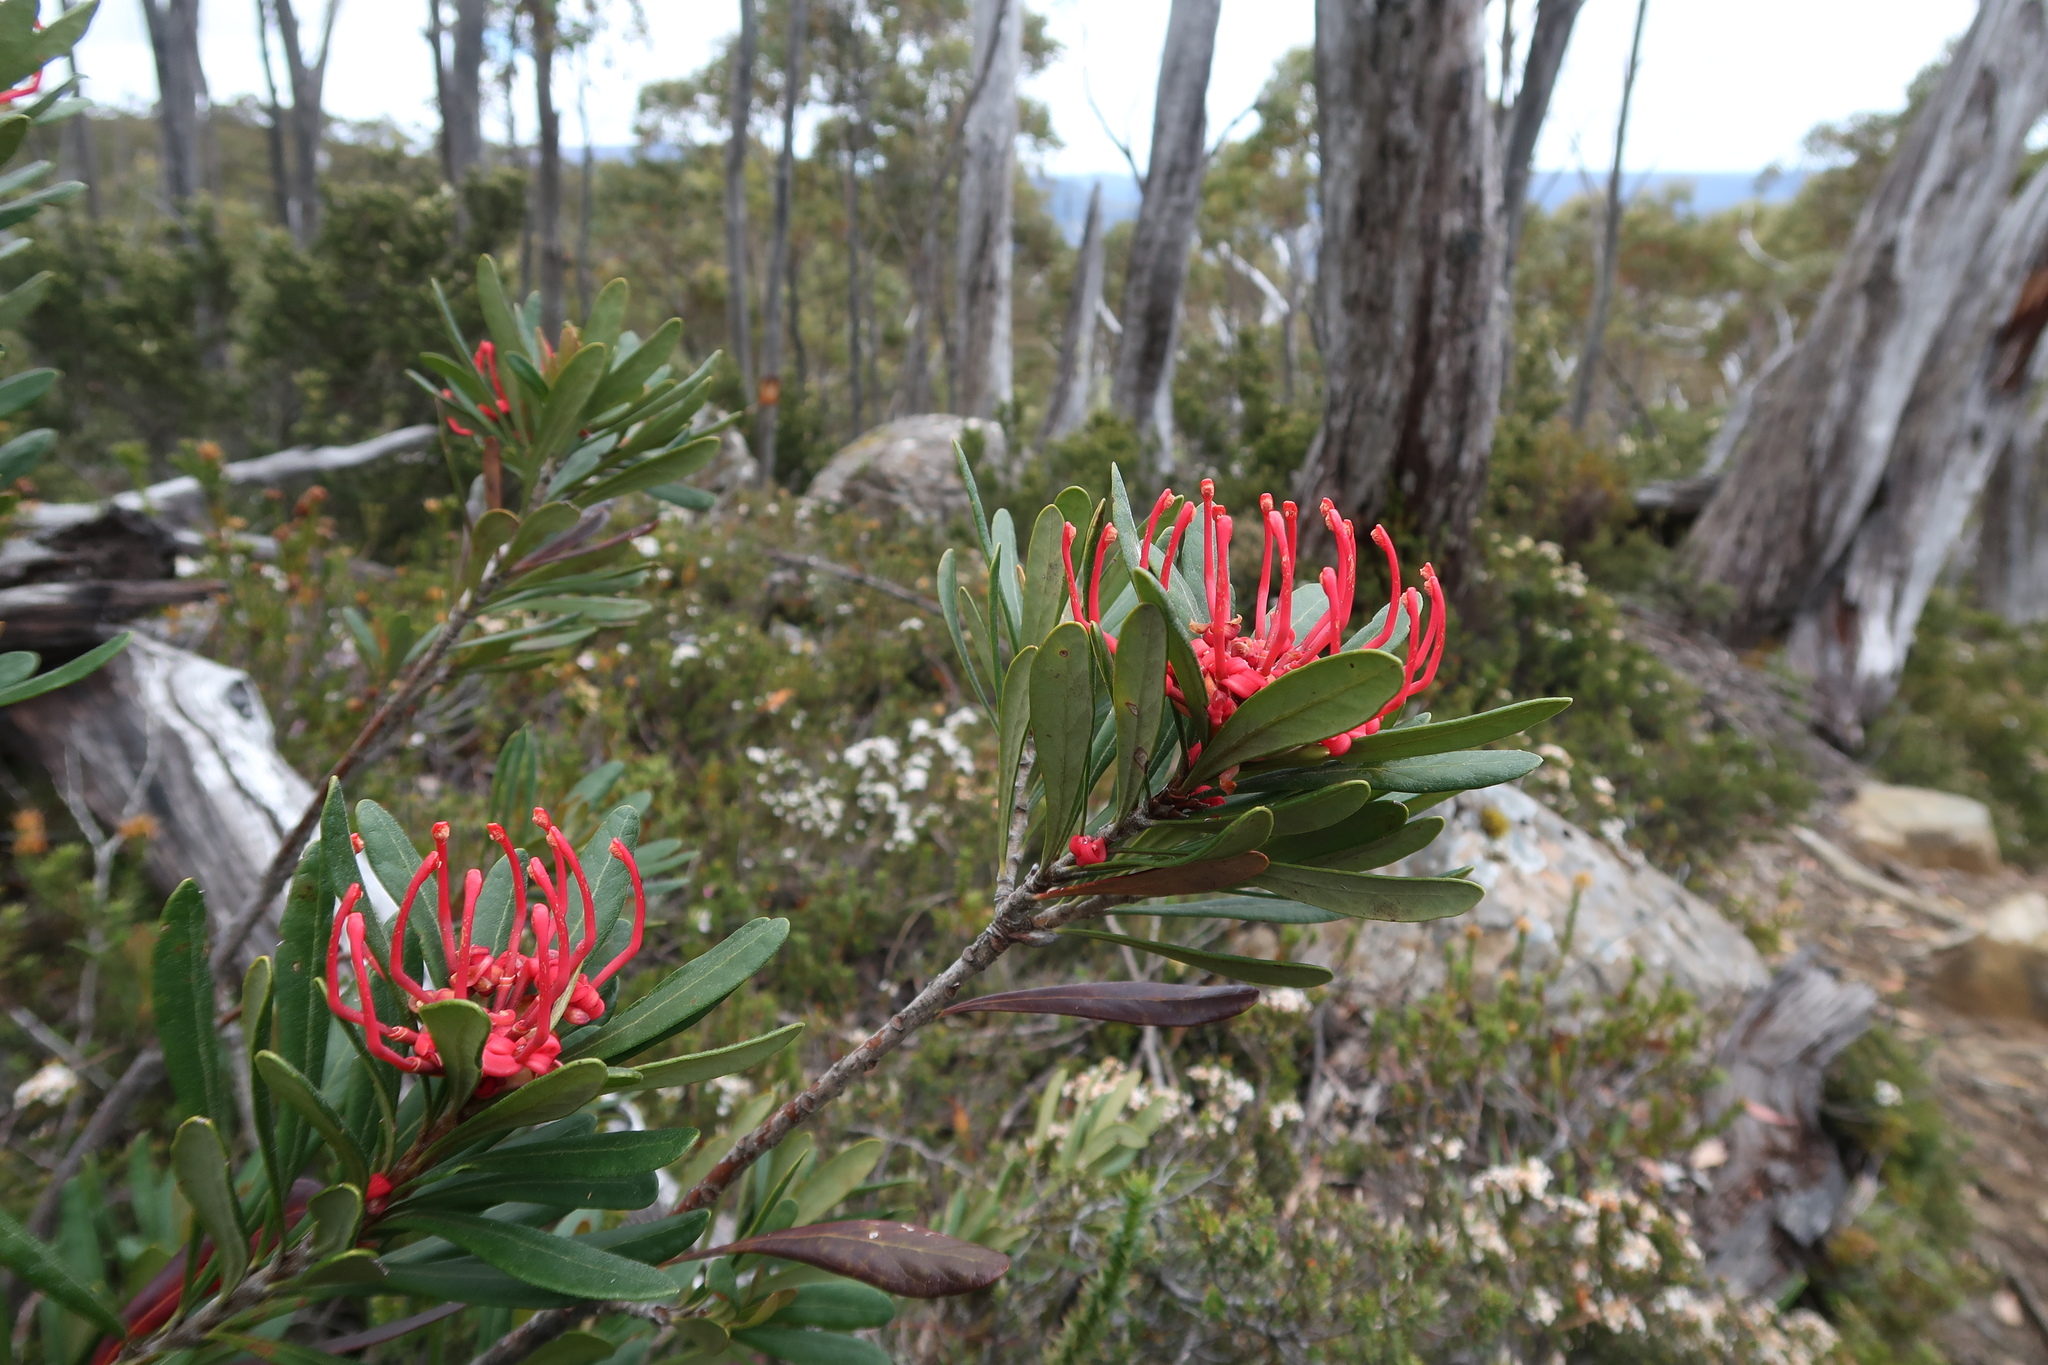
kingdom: Plantae
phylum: Tracheophyta
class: Magnoliopsida
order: Proteales
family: Proteaceae
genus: Telopea
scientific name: Telopea truncata
